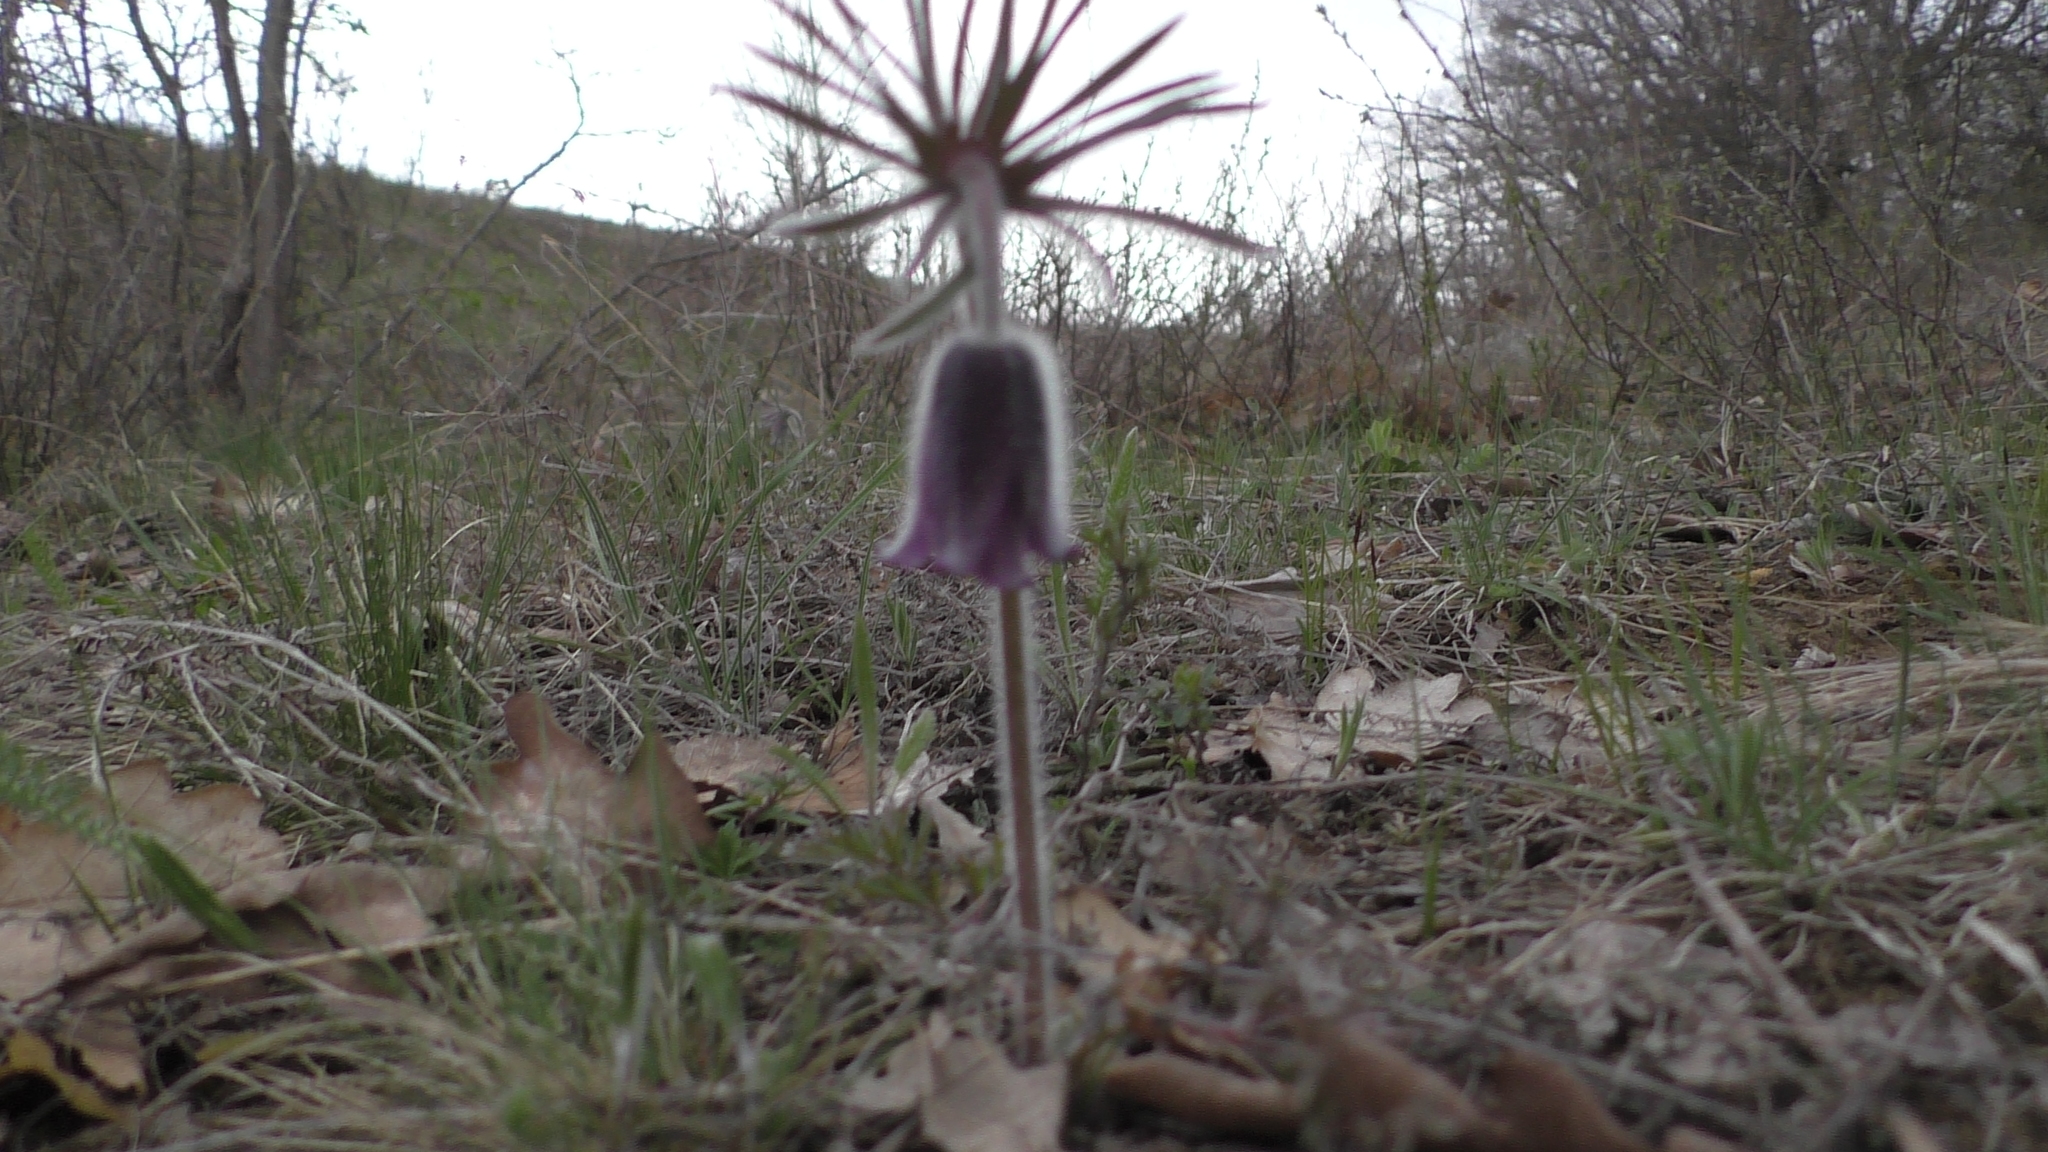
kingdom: Plantae
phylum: Tracheophyta
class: Magnoliopsida
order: Ranunculales
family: Ranunculaceae
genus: Pulsatilla
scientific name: Pulsatilla pratensis
